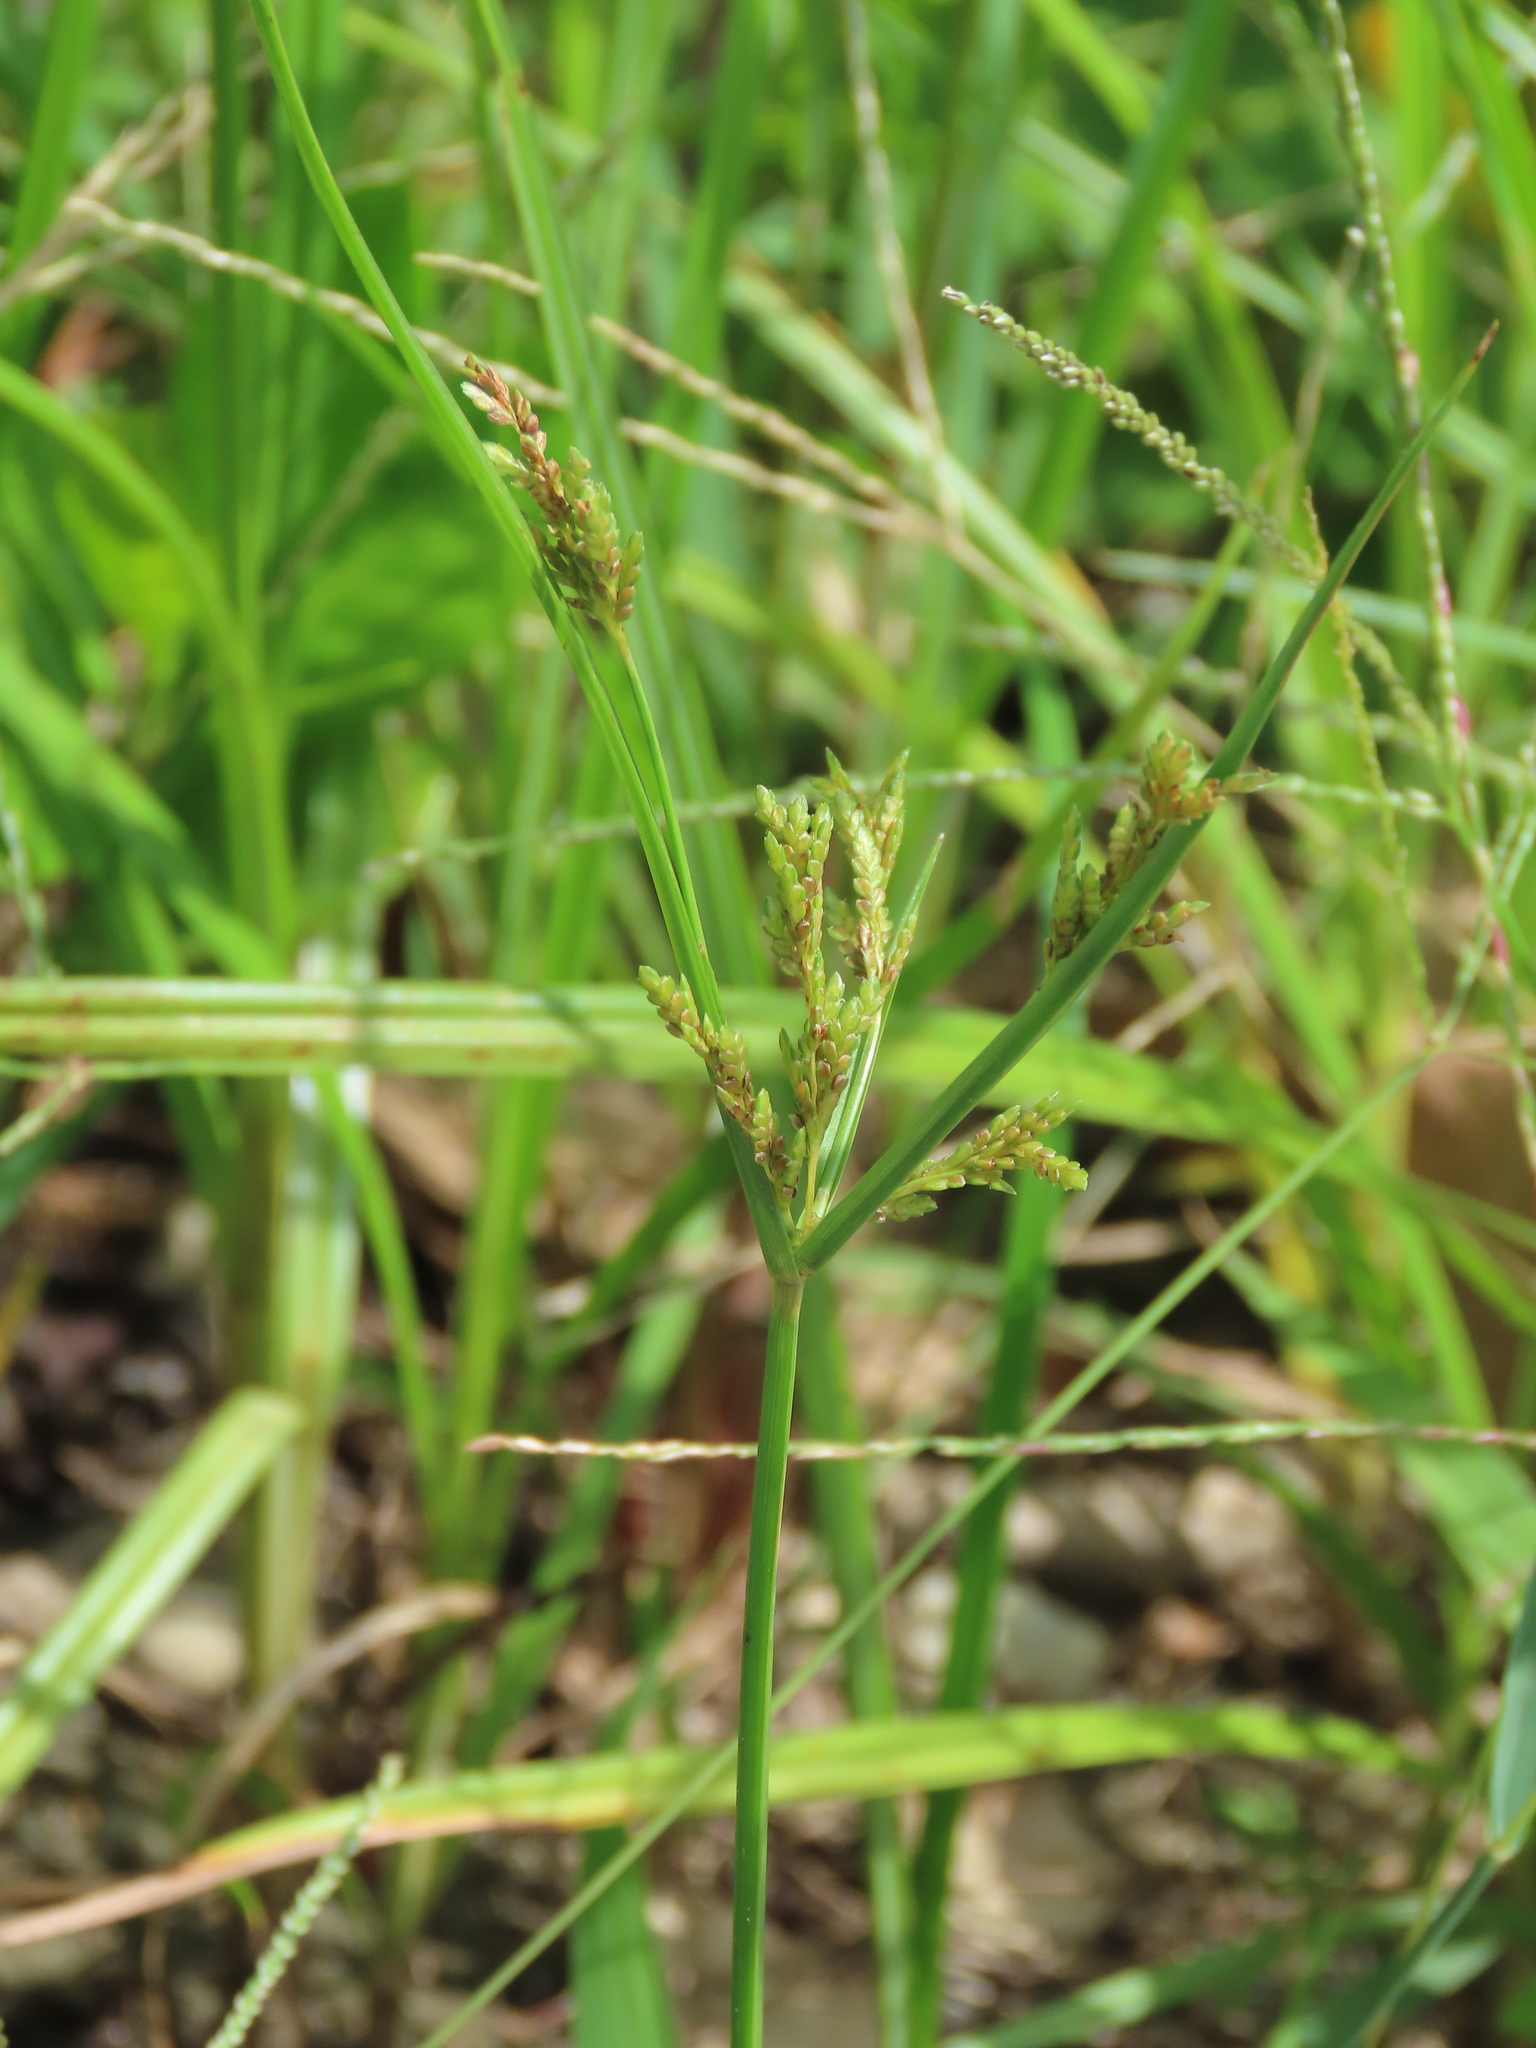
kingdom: Plantae
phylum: Tracheophyta
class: Liliopsida
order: Poales
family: Cyperaceae
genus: Cyperus
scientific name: Cyperus iria
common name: Ricefield flatsedge
